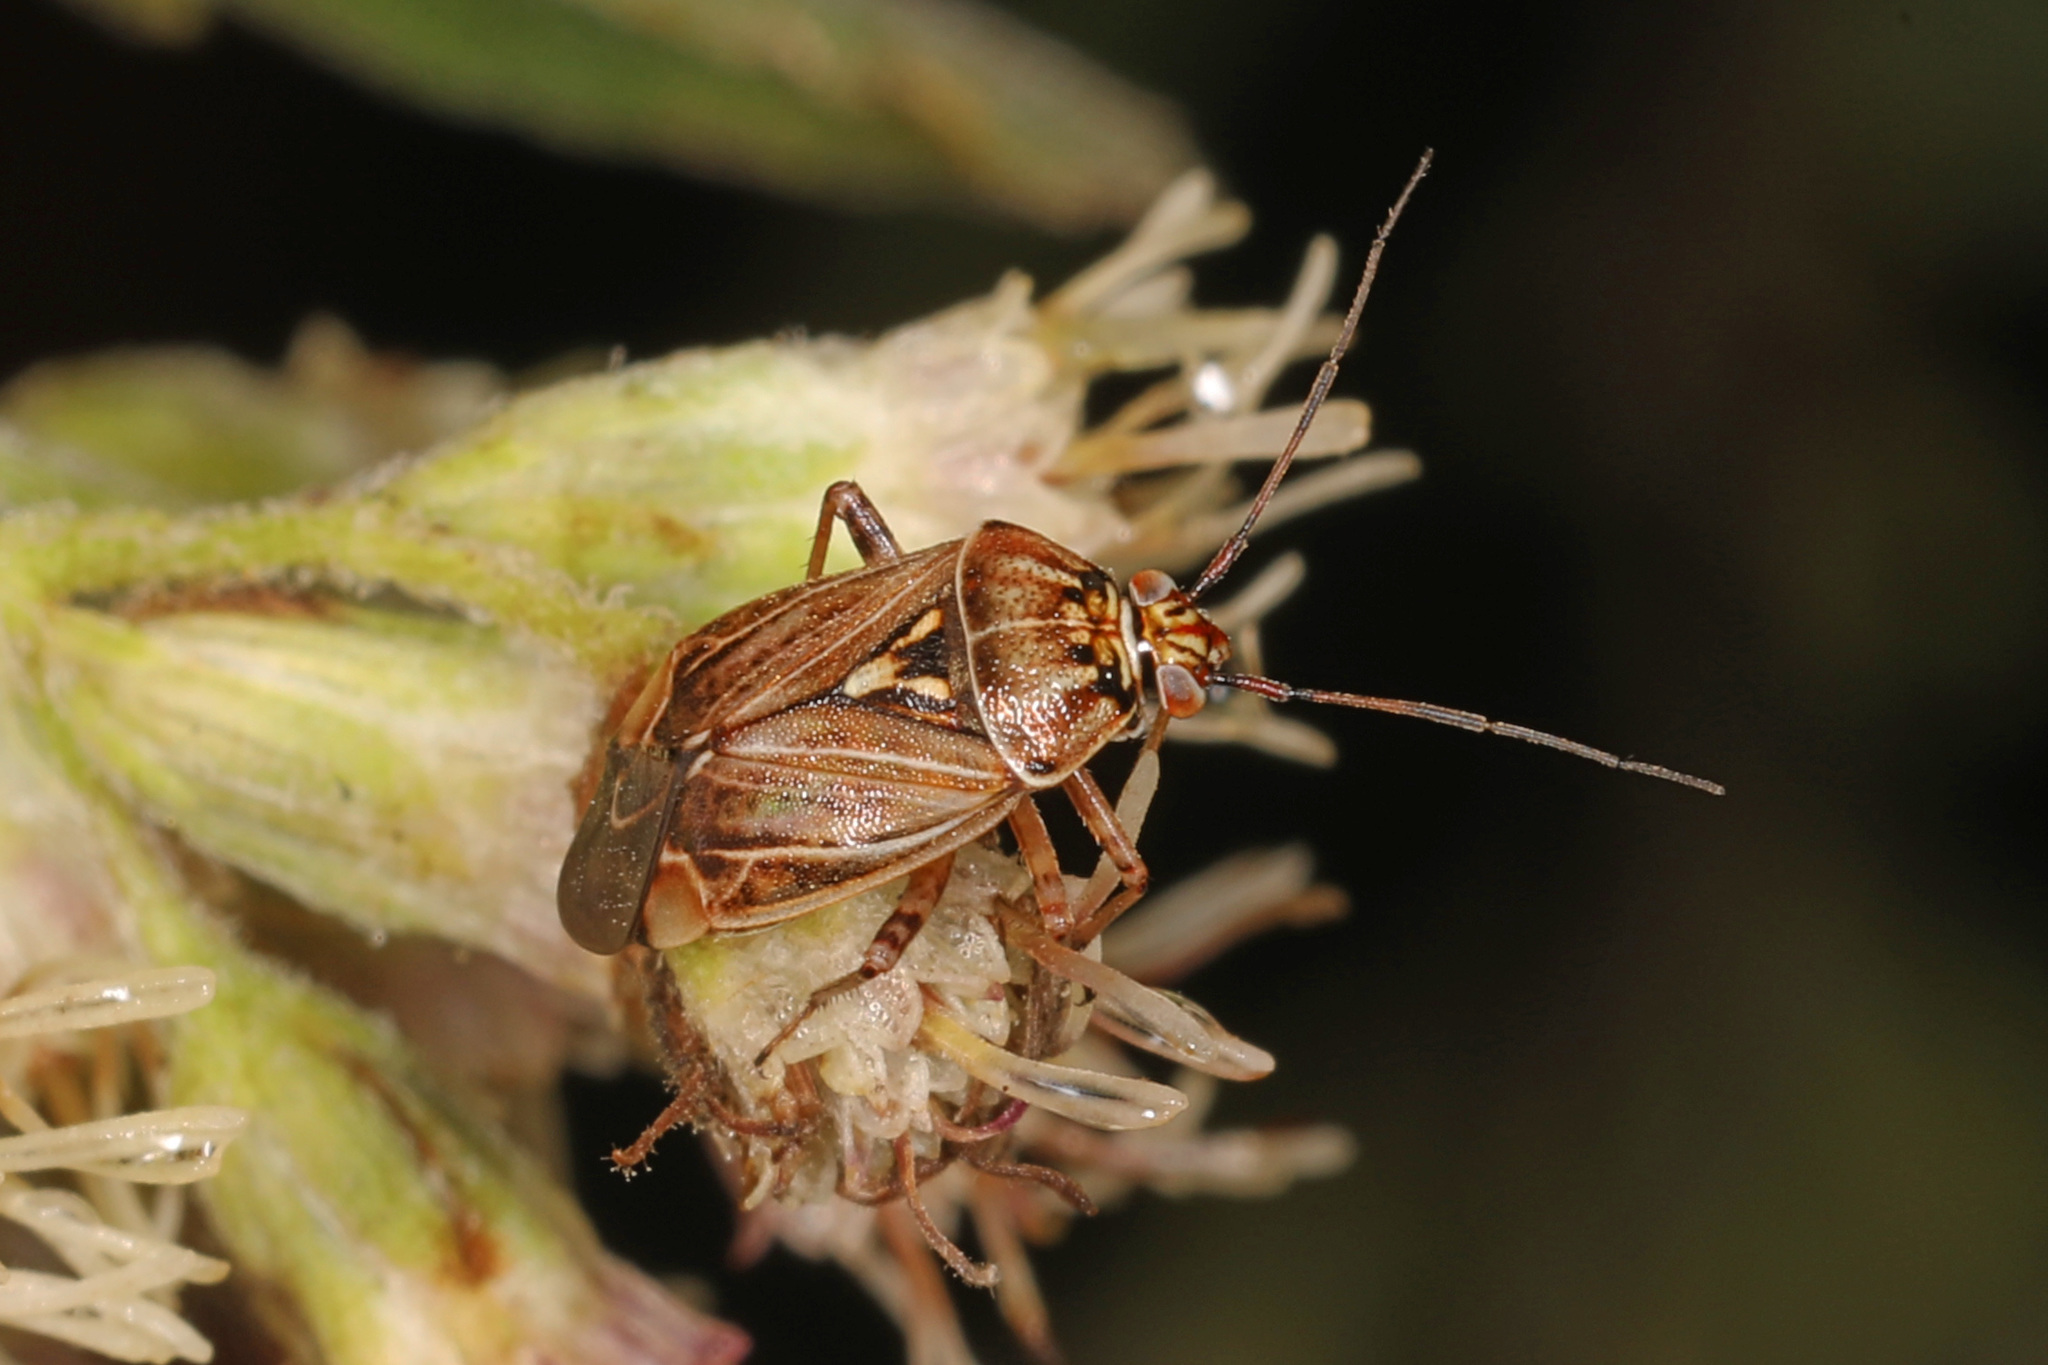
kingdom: Animalia
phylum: Arthropoda
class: Insecta
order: Hemiptera
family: Miridae
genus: Lygus
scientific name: Lygus lineolaris
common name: North american tarnished plant bug
